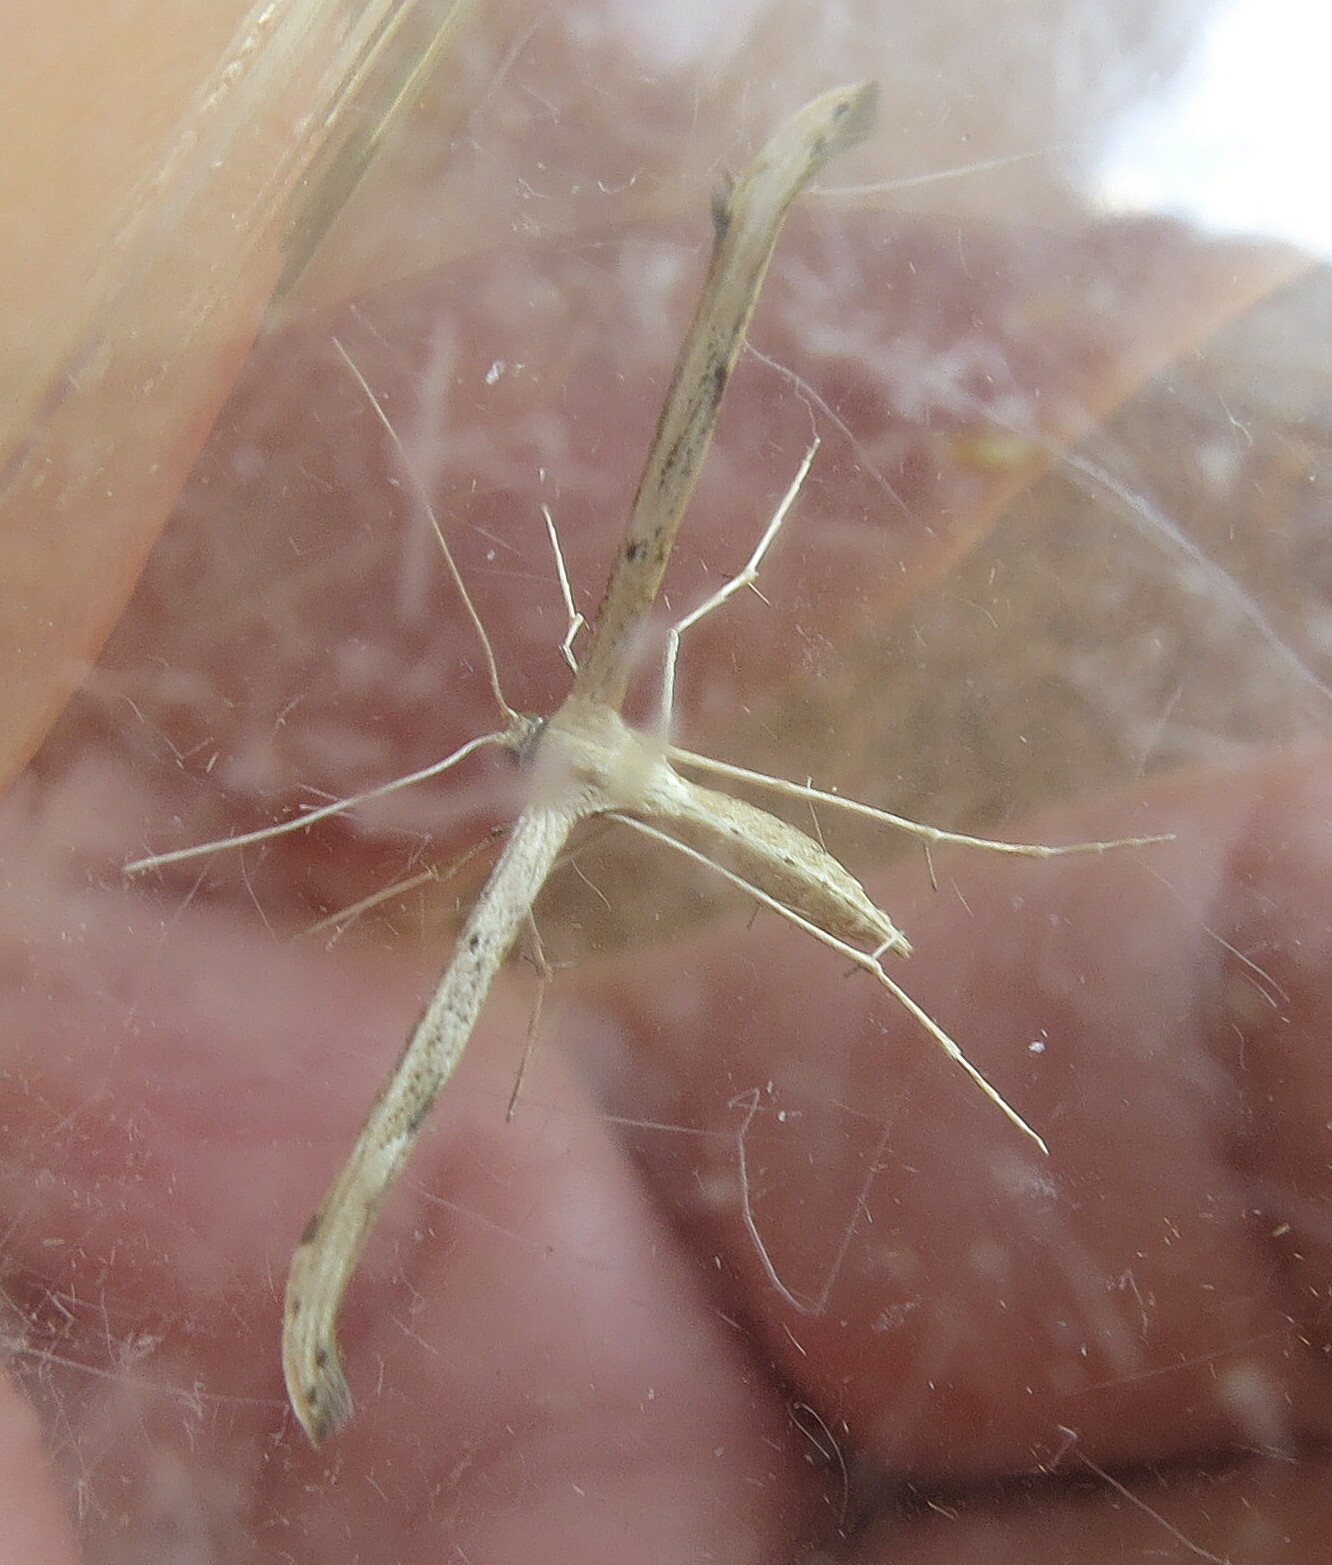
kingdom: Animalia
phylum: Arthropoda
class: Insecta
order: Lepidoptera
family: Pterophoridae
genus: Emmelina
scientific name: Emmelina monodactyla
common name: Common plume
